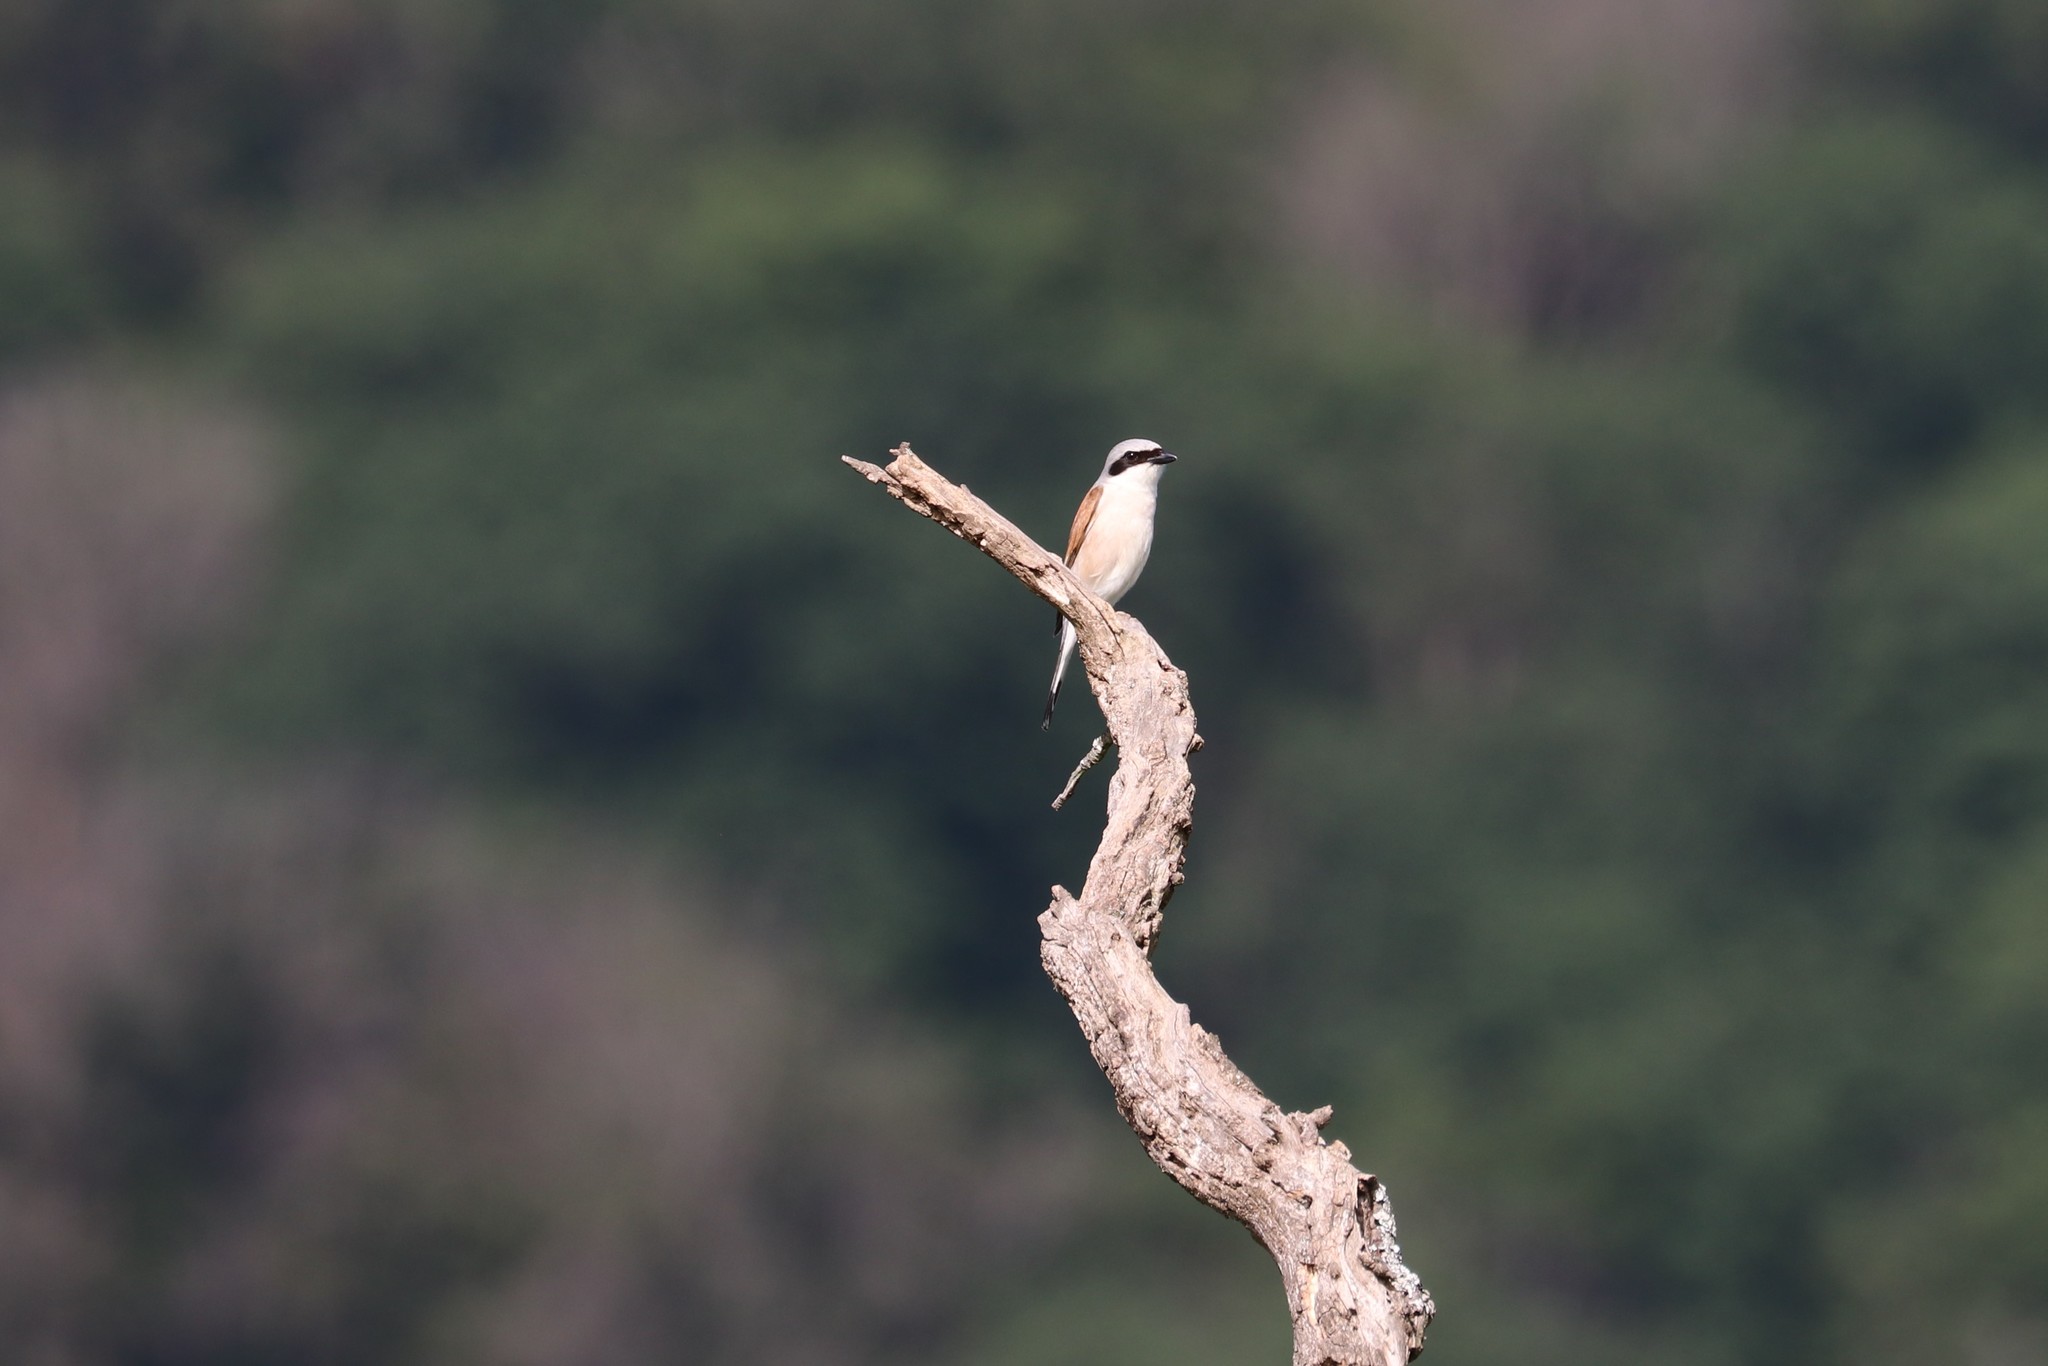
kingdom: Animalia
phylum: Chordata
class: Aves
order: Passeriformes
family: Laniidae
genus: Lanius
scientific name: Lanius collurio
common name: Red-backed shrike
